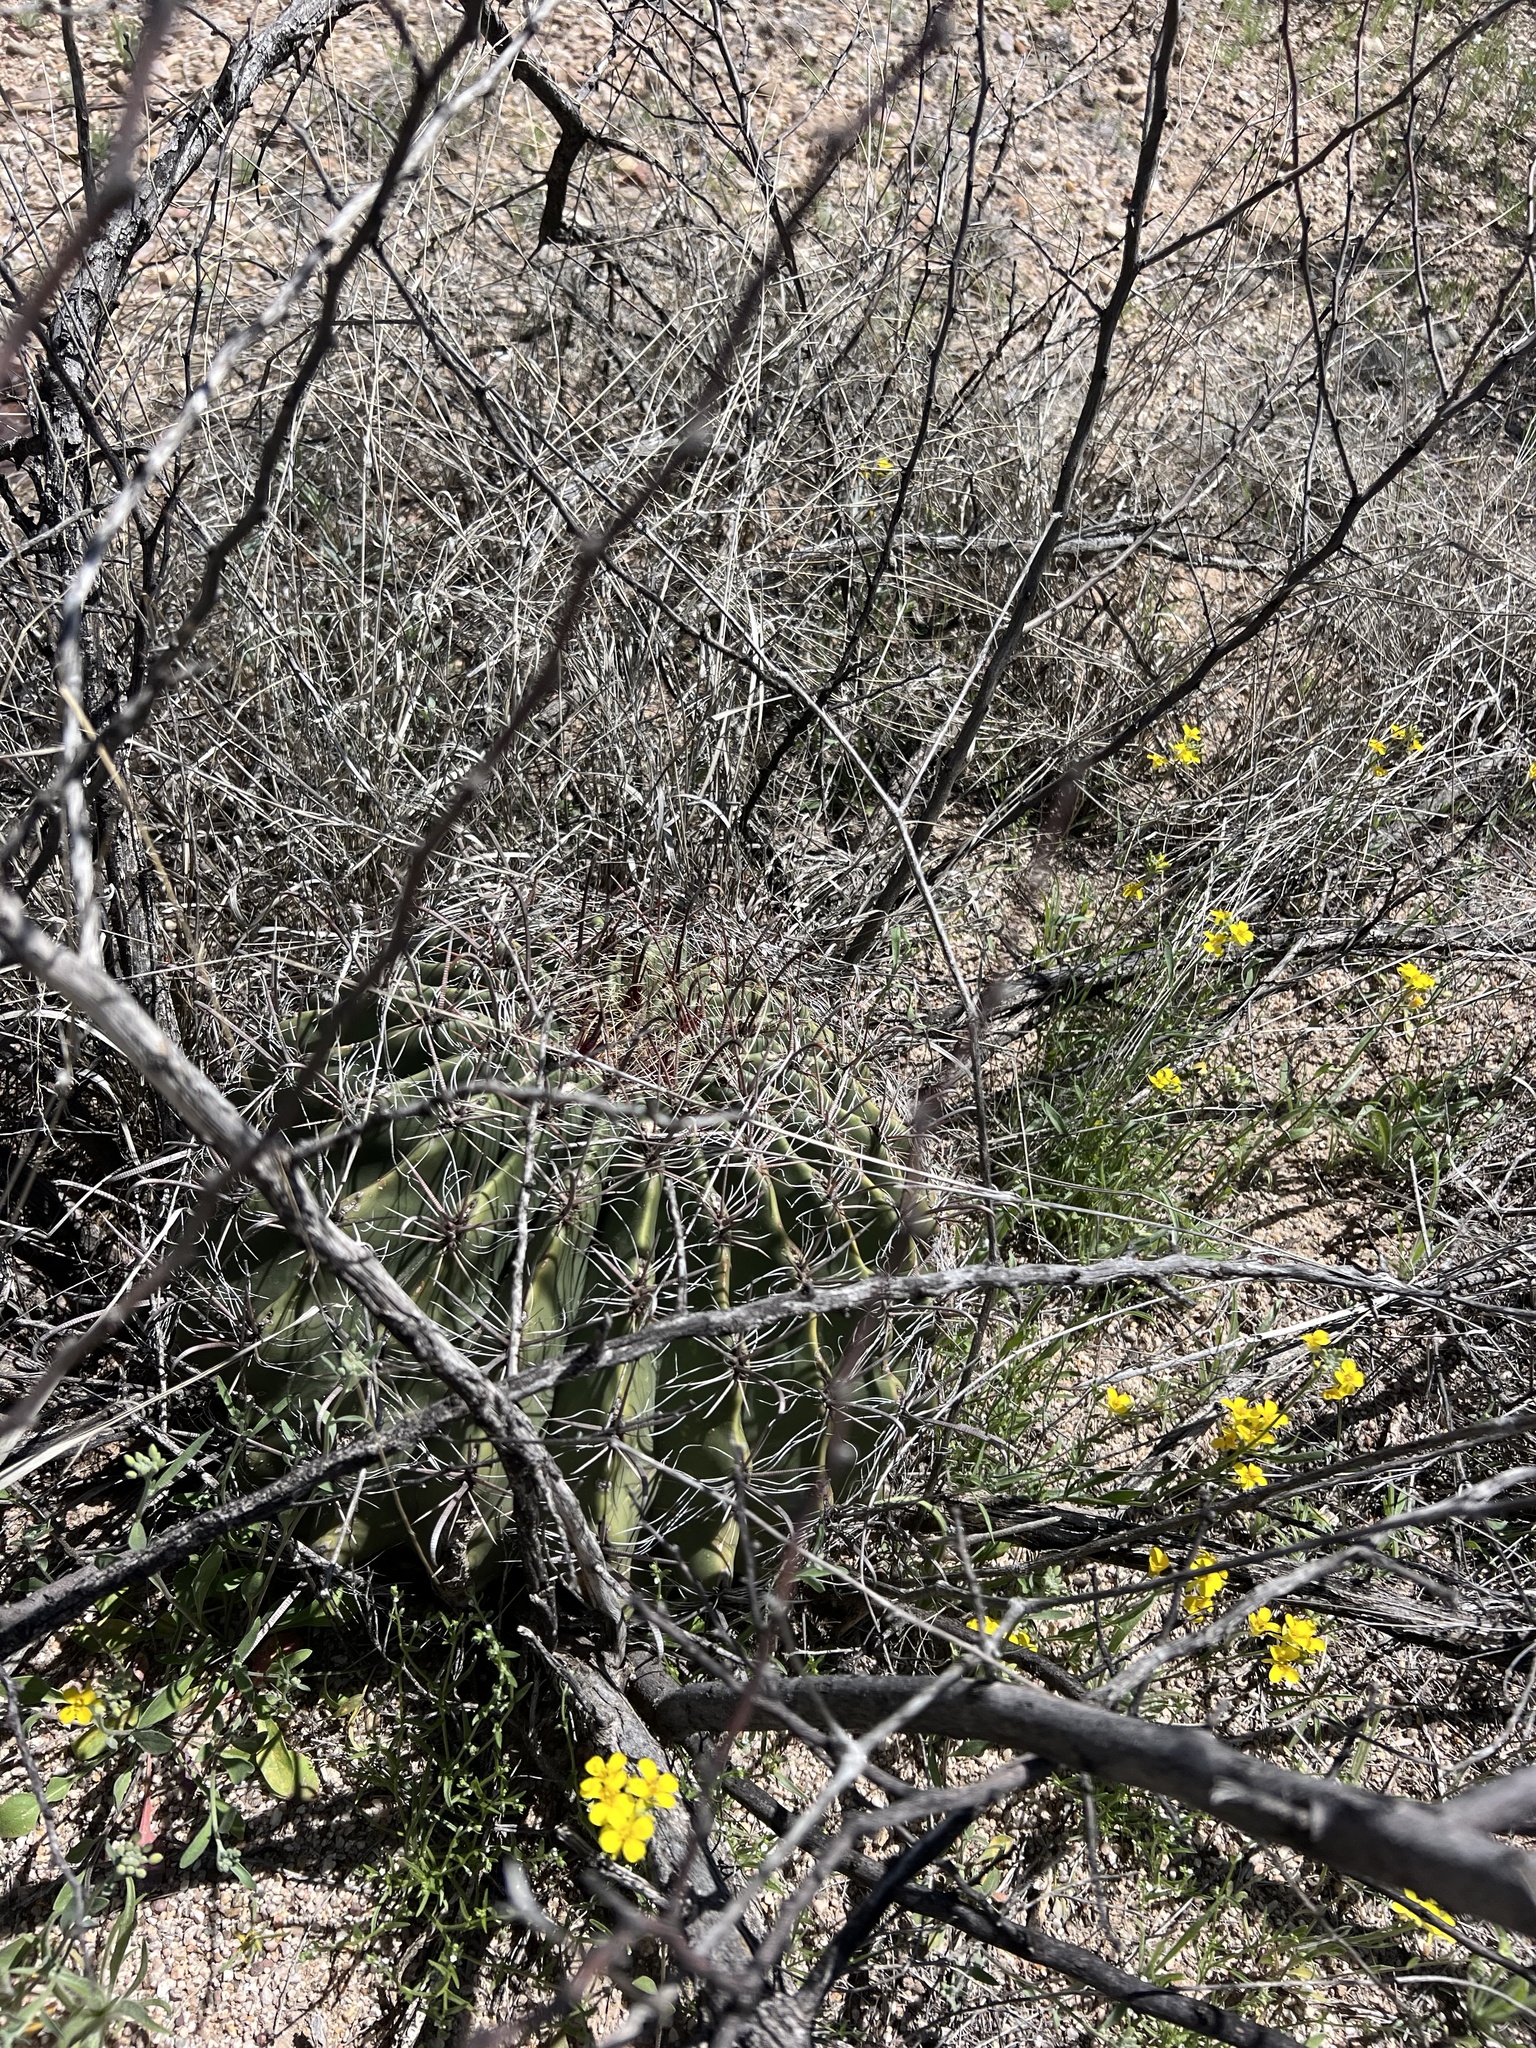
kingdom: Plantae
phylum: Tracheophyta
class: Magnoliopsida
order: Caryophyllales
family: Cactaceae
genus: Ferocactus
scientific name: Ferocactus wislizeni
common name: Candy barrel cactus
